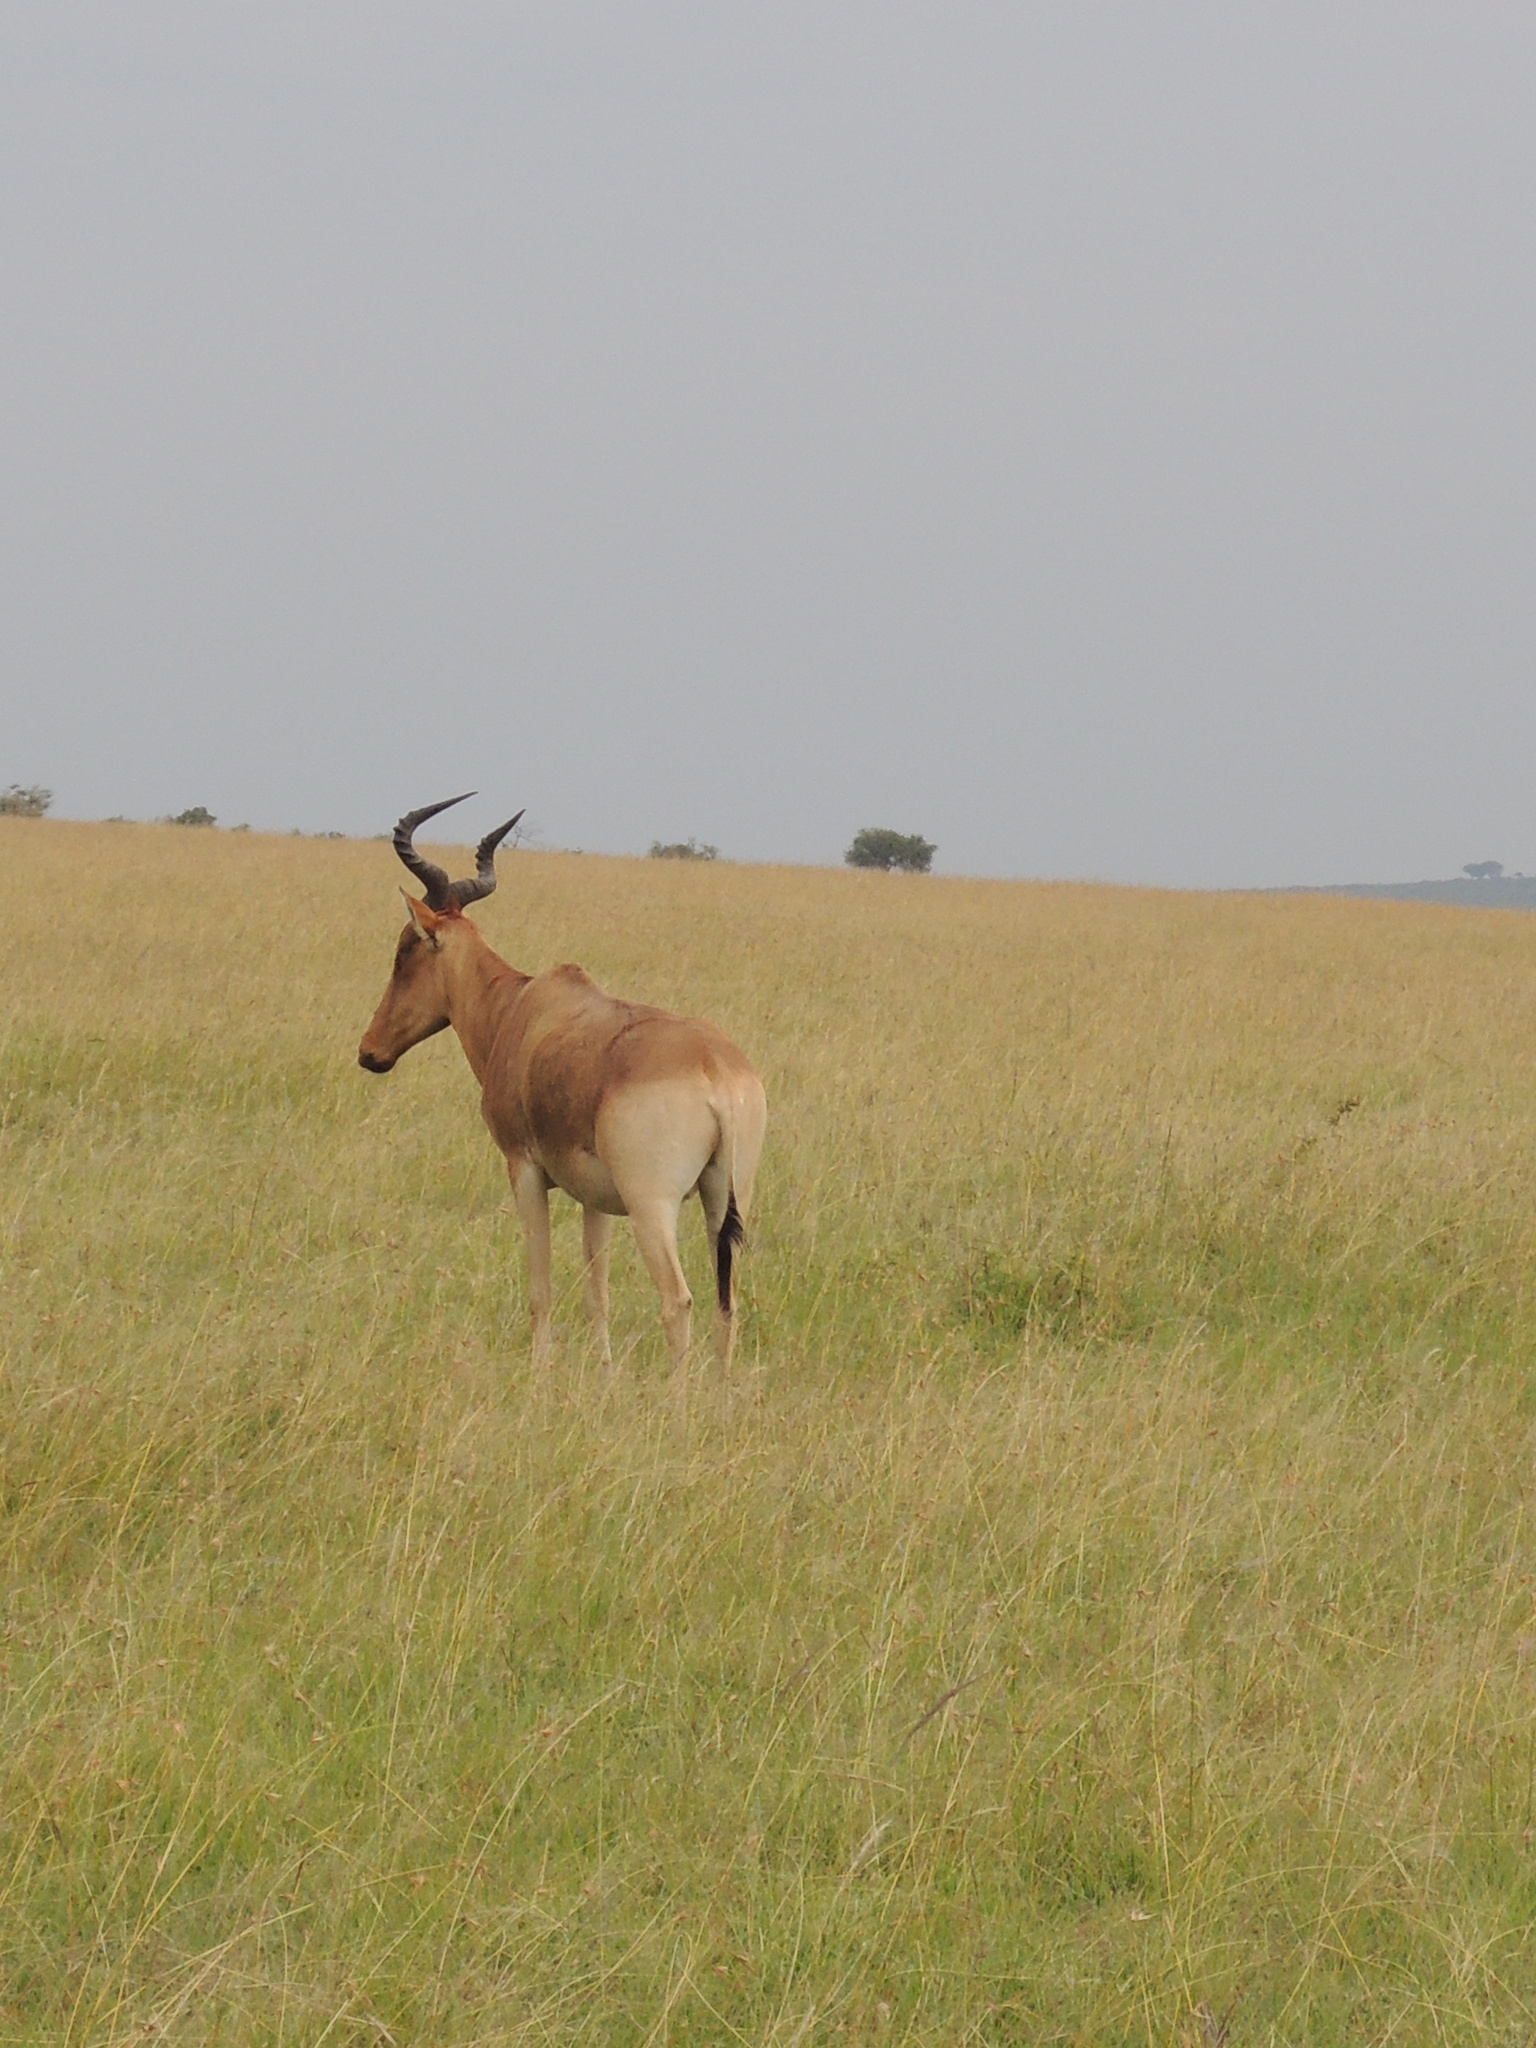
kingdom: Animalia
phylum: Chordata
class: Mammalia
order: Artiodactyla
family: Bovidae
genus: Alcelaphus
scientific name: Alcelaphus buselaphus
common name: Hartebeest
